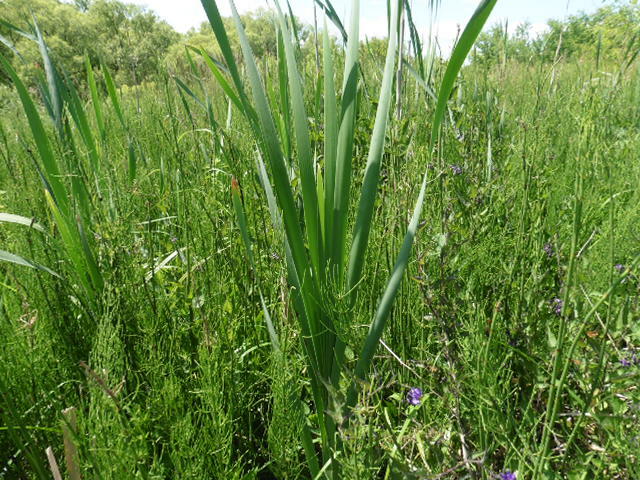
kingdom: Plantae
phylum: Tracheophyta
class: Liliopsida
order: Poales
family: Typhaceae
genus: Typha
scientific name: Typha latifolia
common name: Broadleaf cattail
